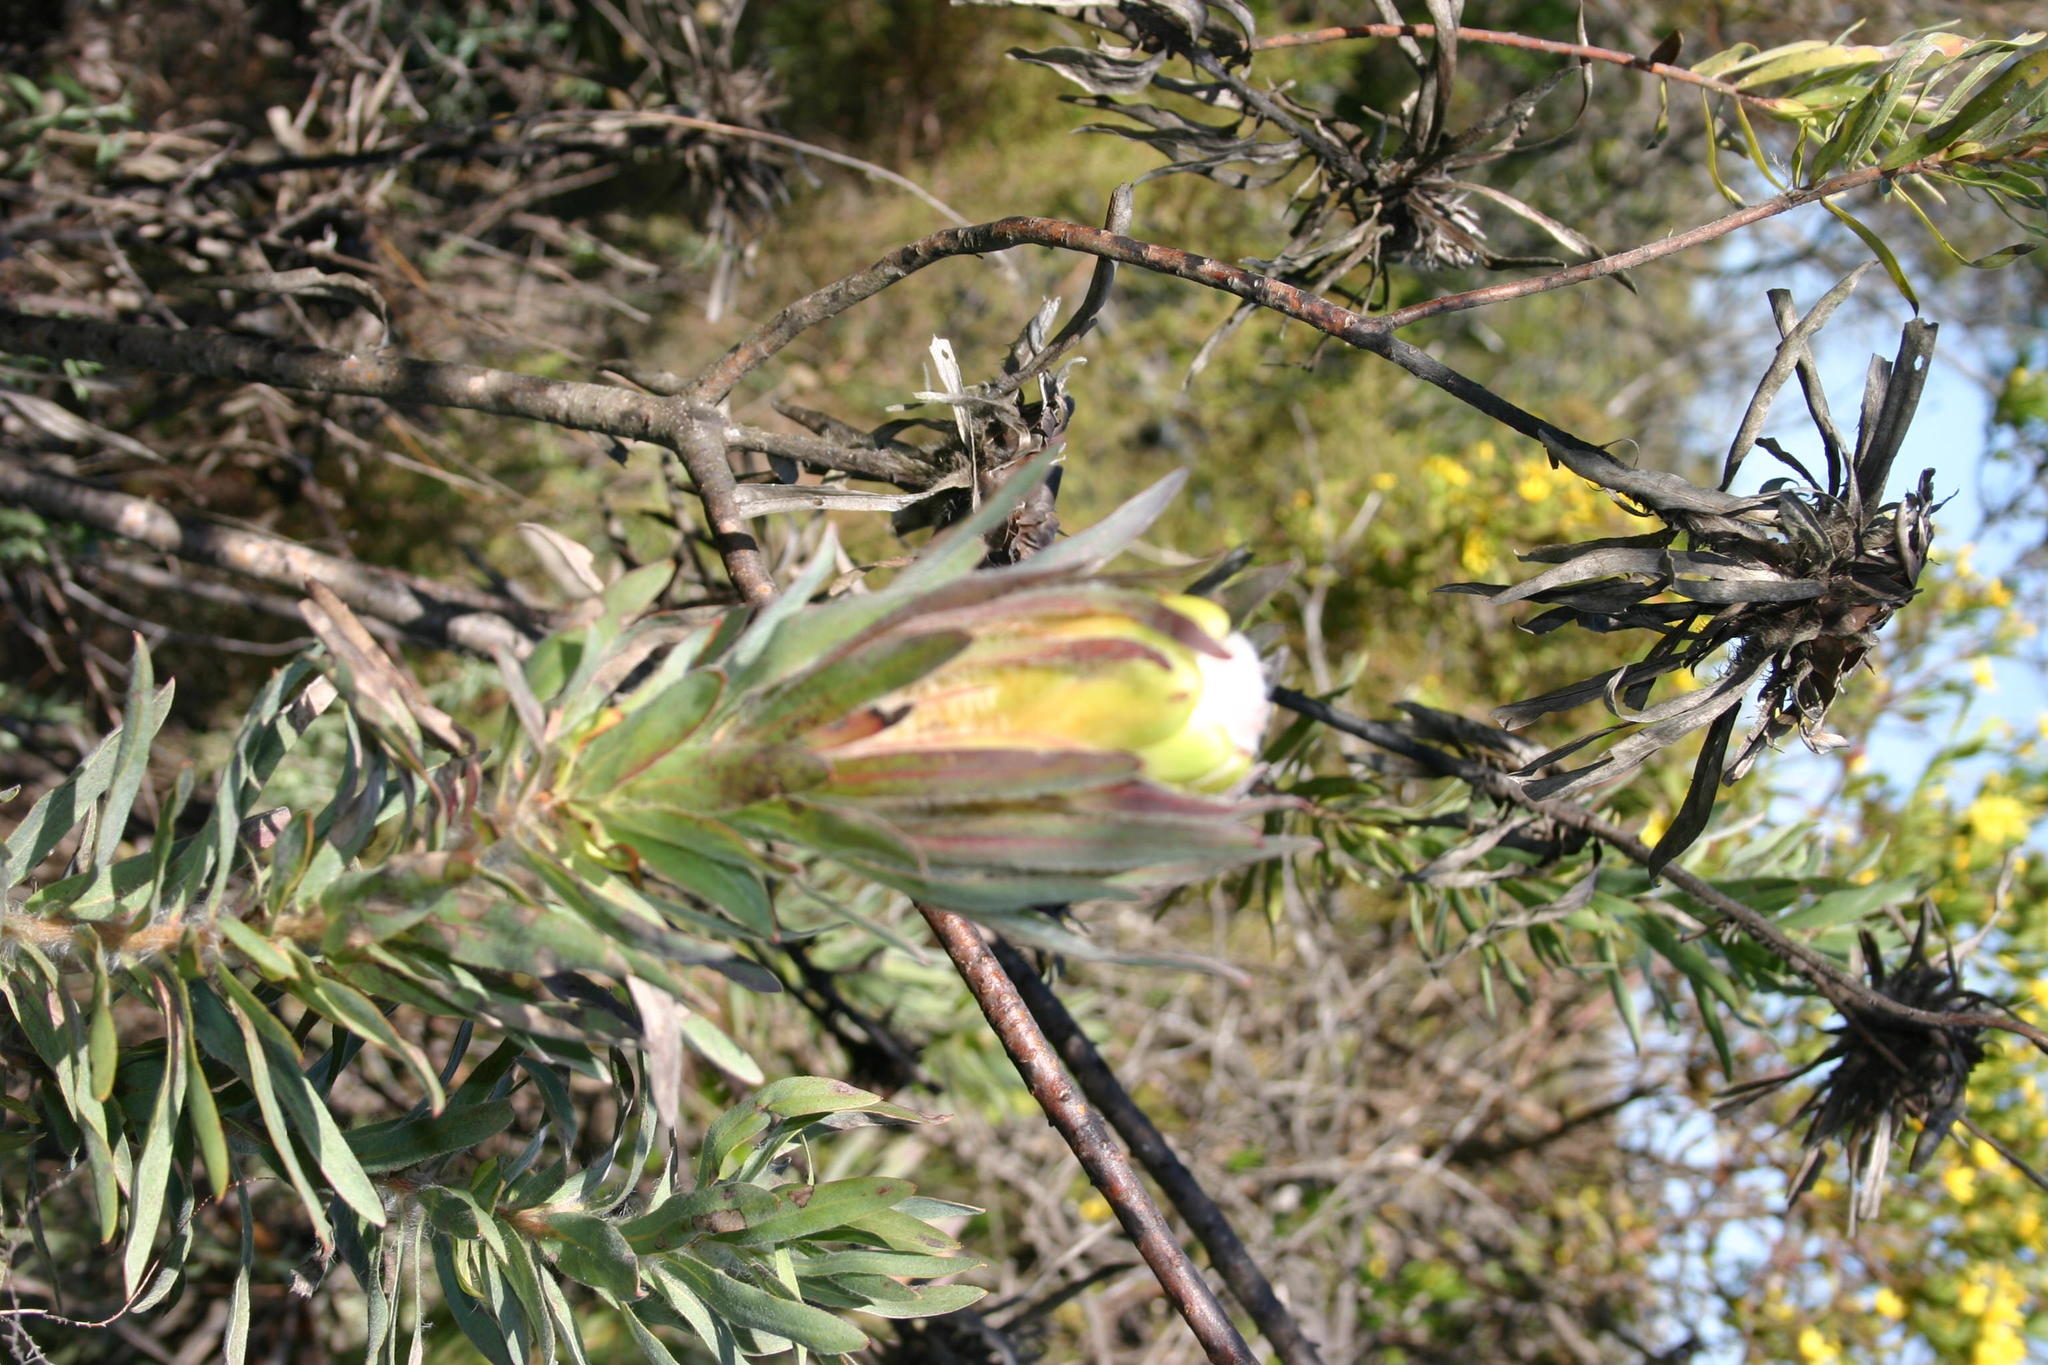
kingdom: Plantae
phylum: Tracheophyta
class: Magnoliopsida
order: Proteales
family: Proteaceae
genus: Protea
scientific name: Protea coronata
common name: Green sugarbush
